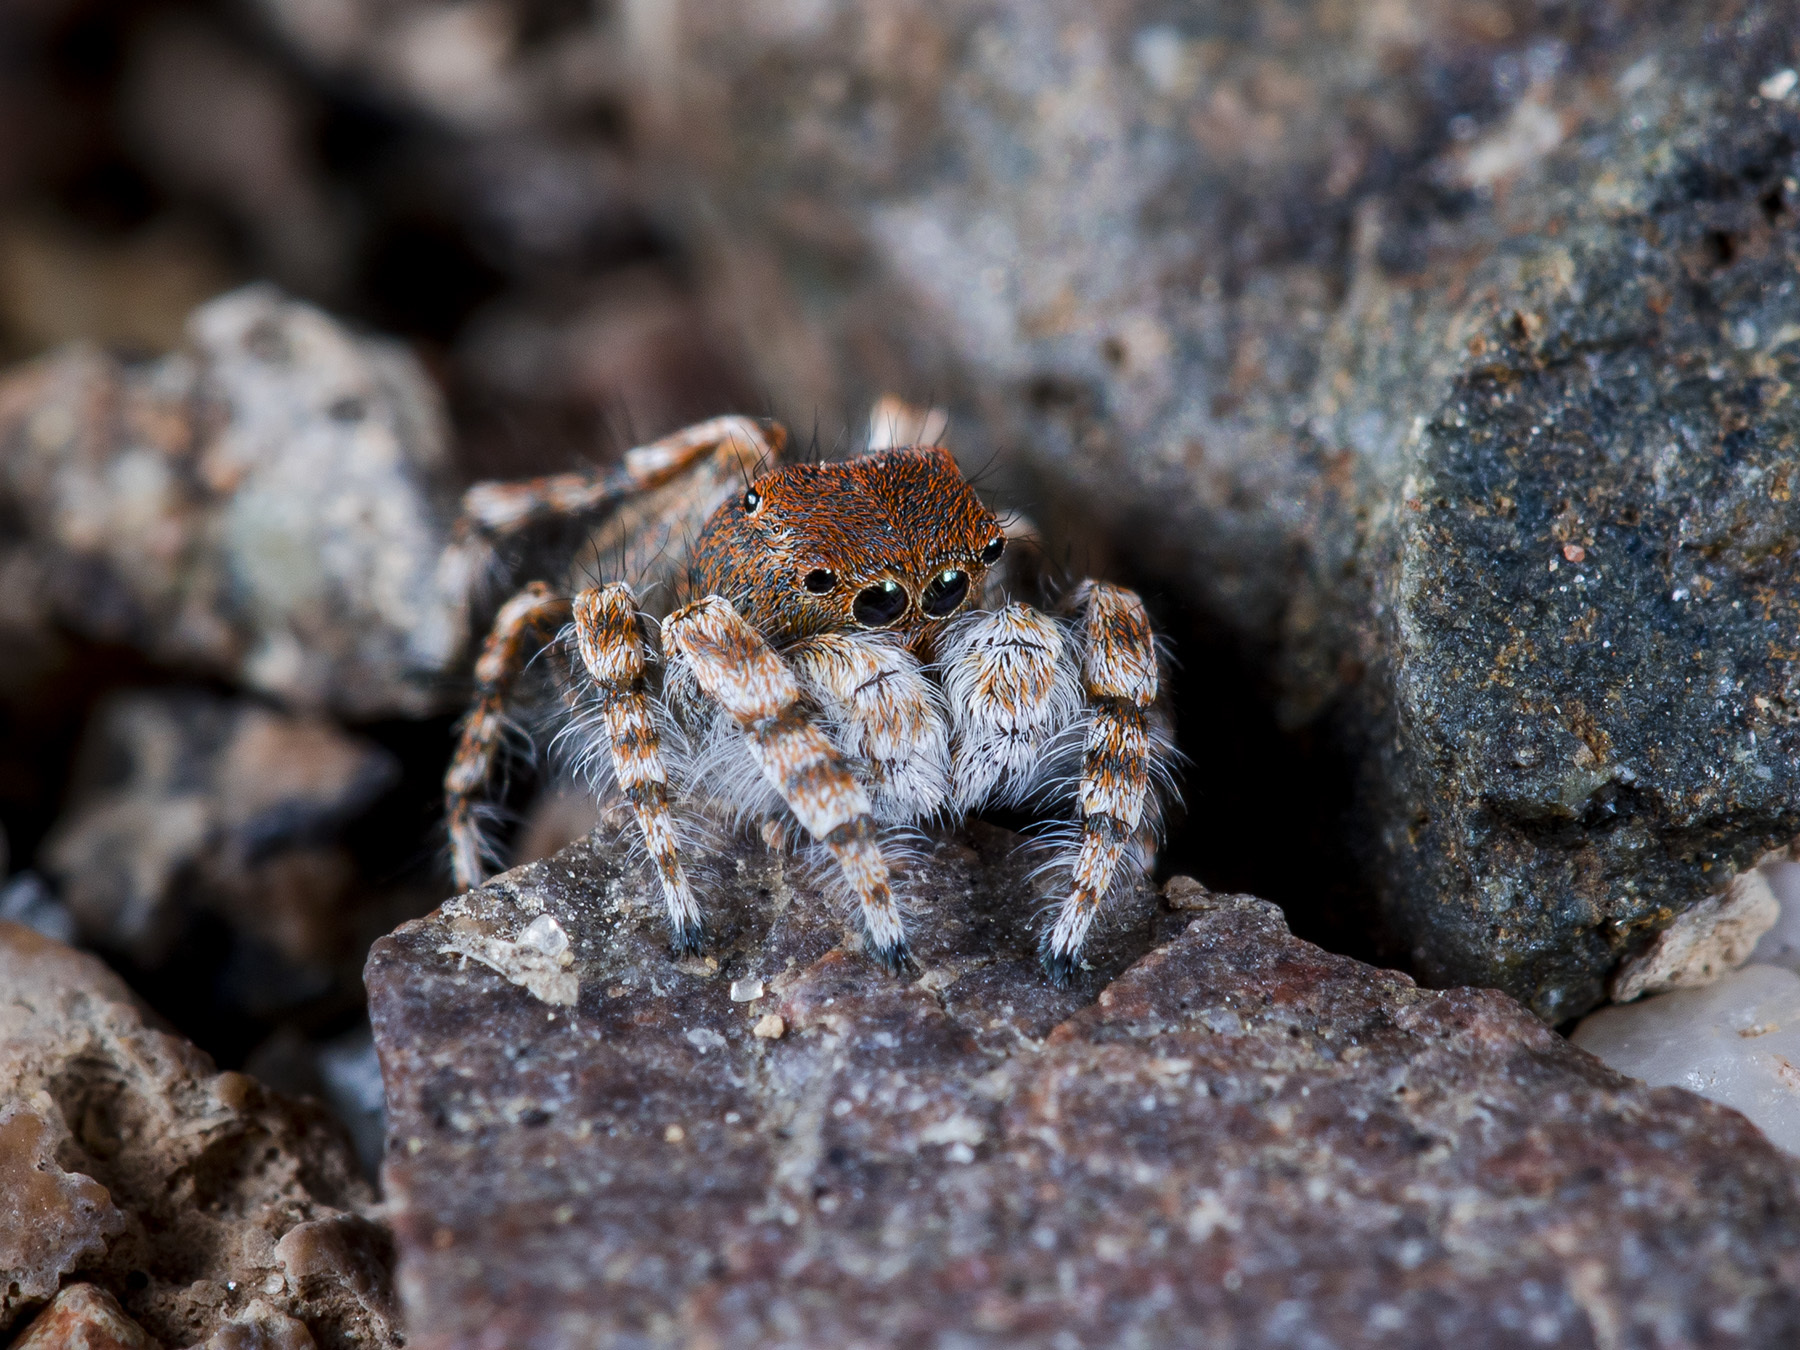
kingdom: Animalia
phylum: Arthropoda
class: Arachnida
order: Araneae
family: Salticidae
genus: Yllenus
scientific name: Yllenus zyuzini
